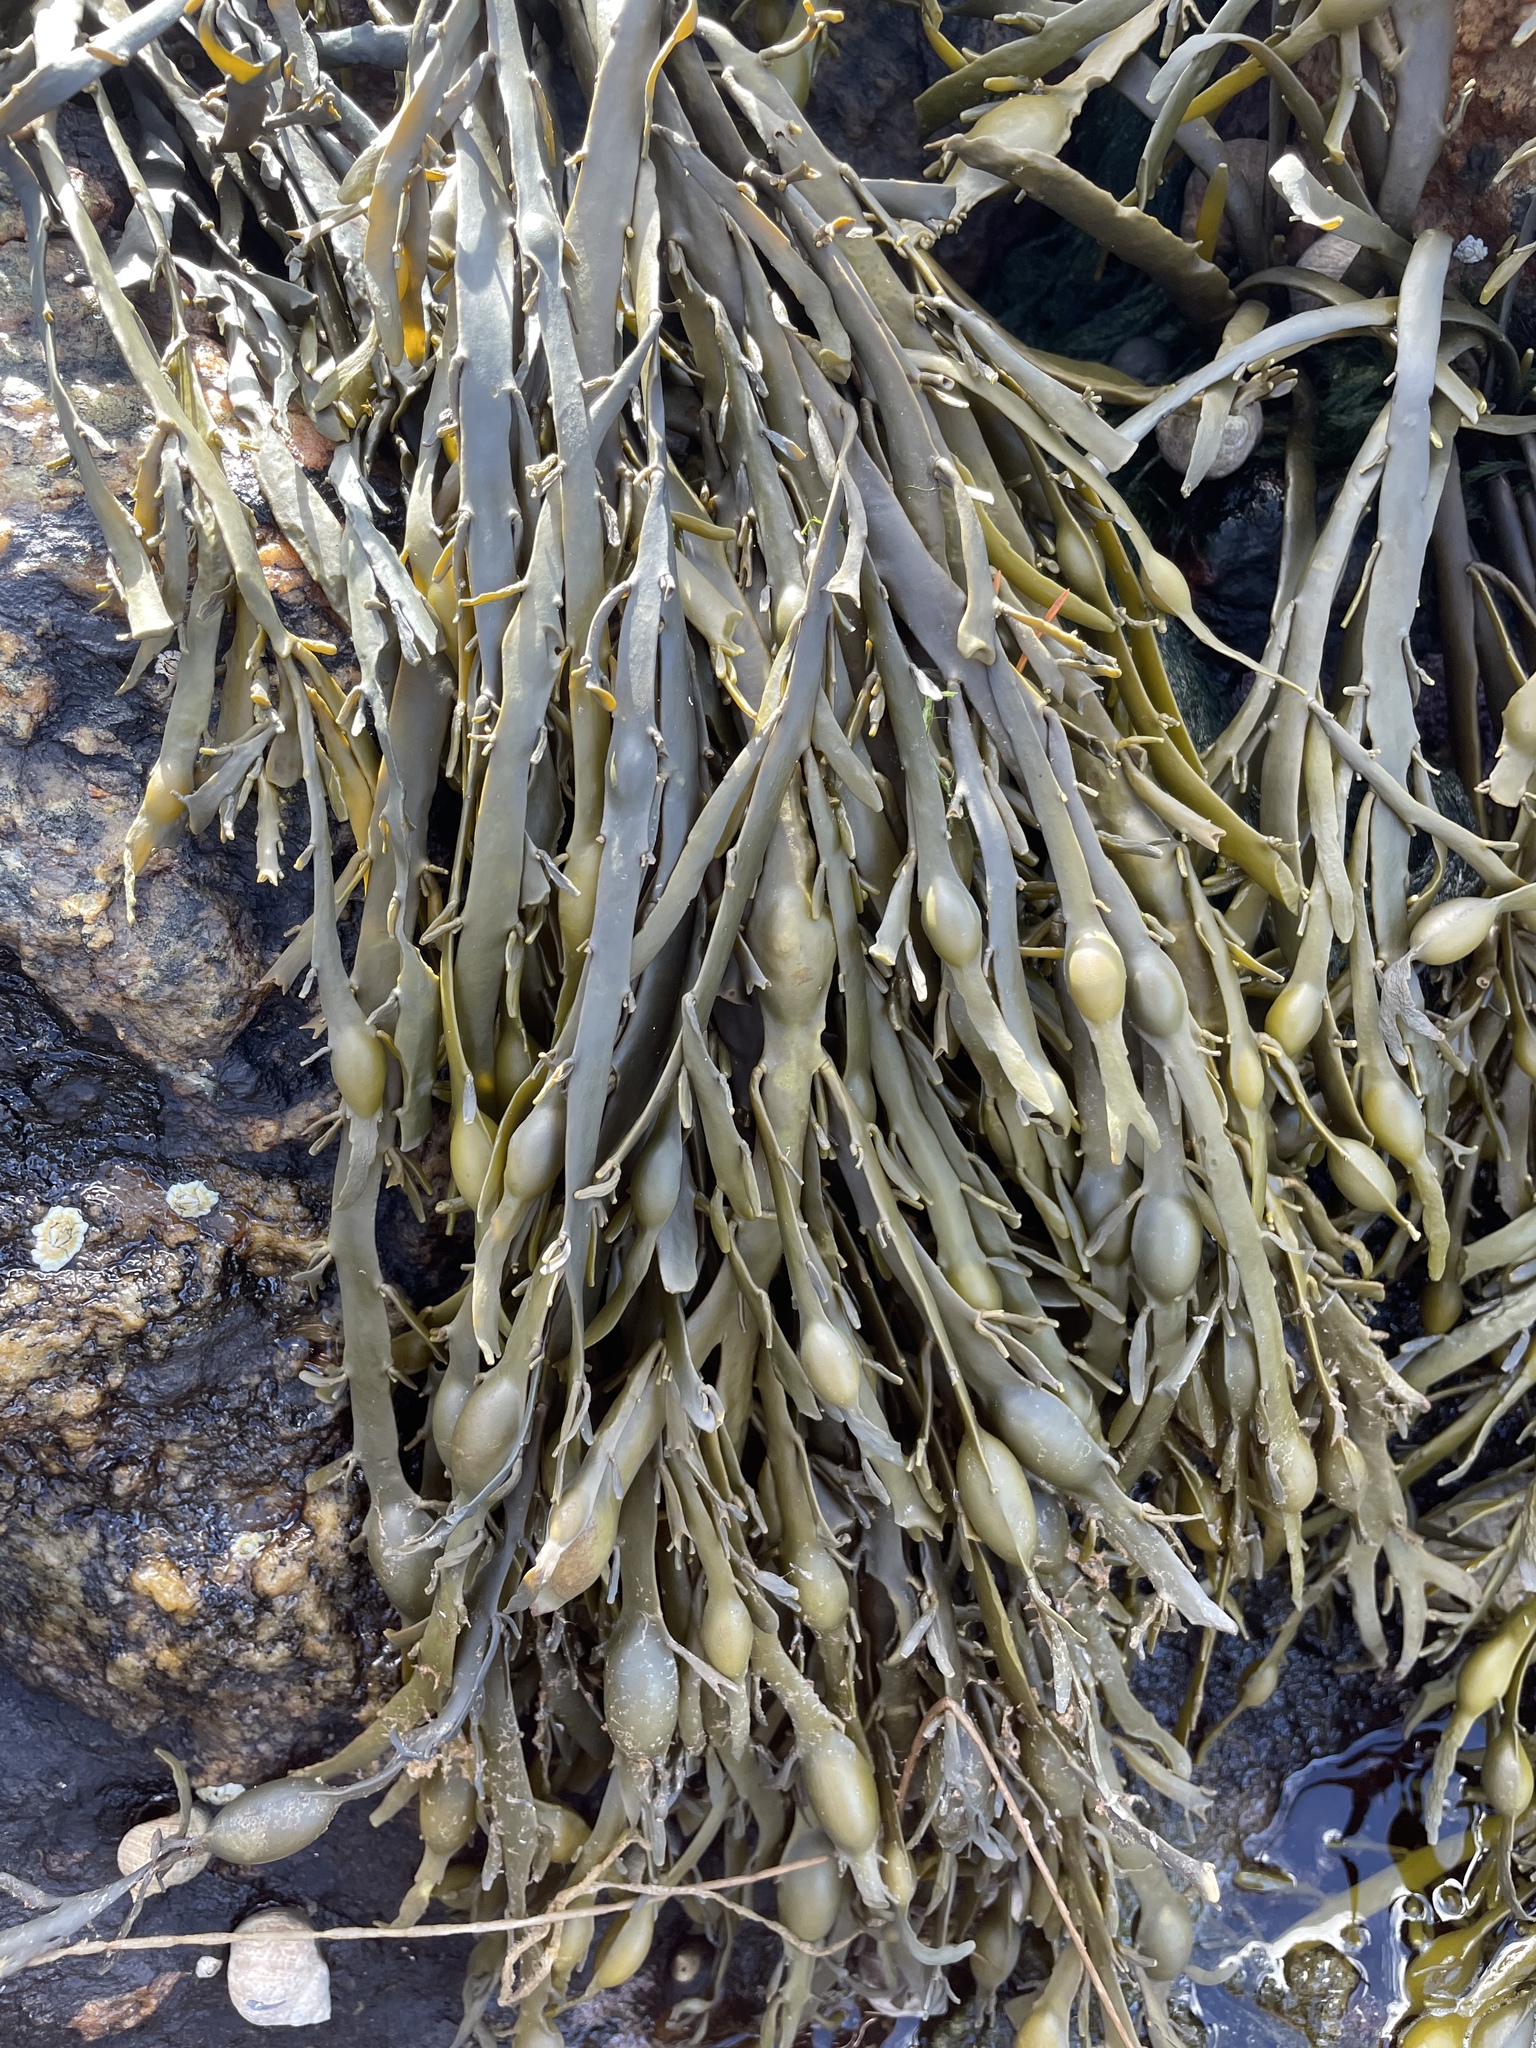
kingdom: Chromista
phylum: Ochrophyta
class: Phaeophyceae
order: Fucales
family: Fucaceae
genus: Ascophyllum
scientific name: Ascophyllum nodosum
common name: Knotted wrack
